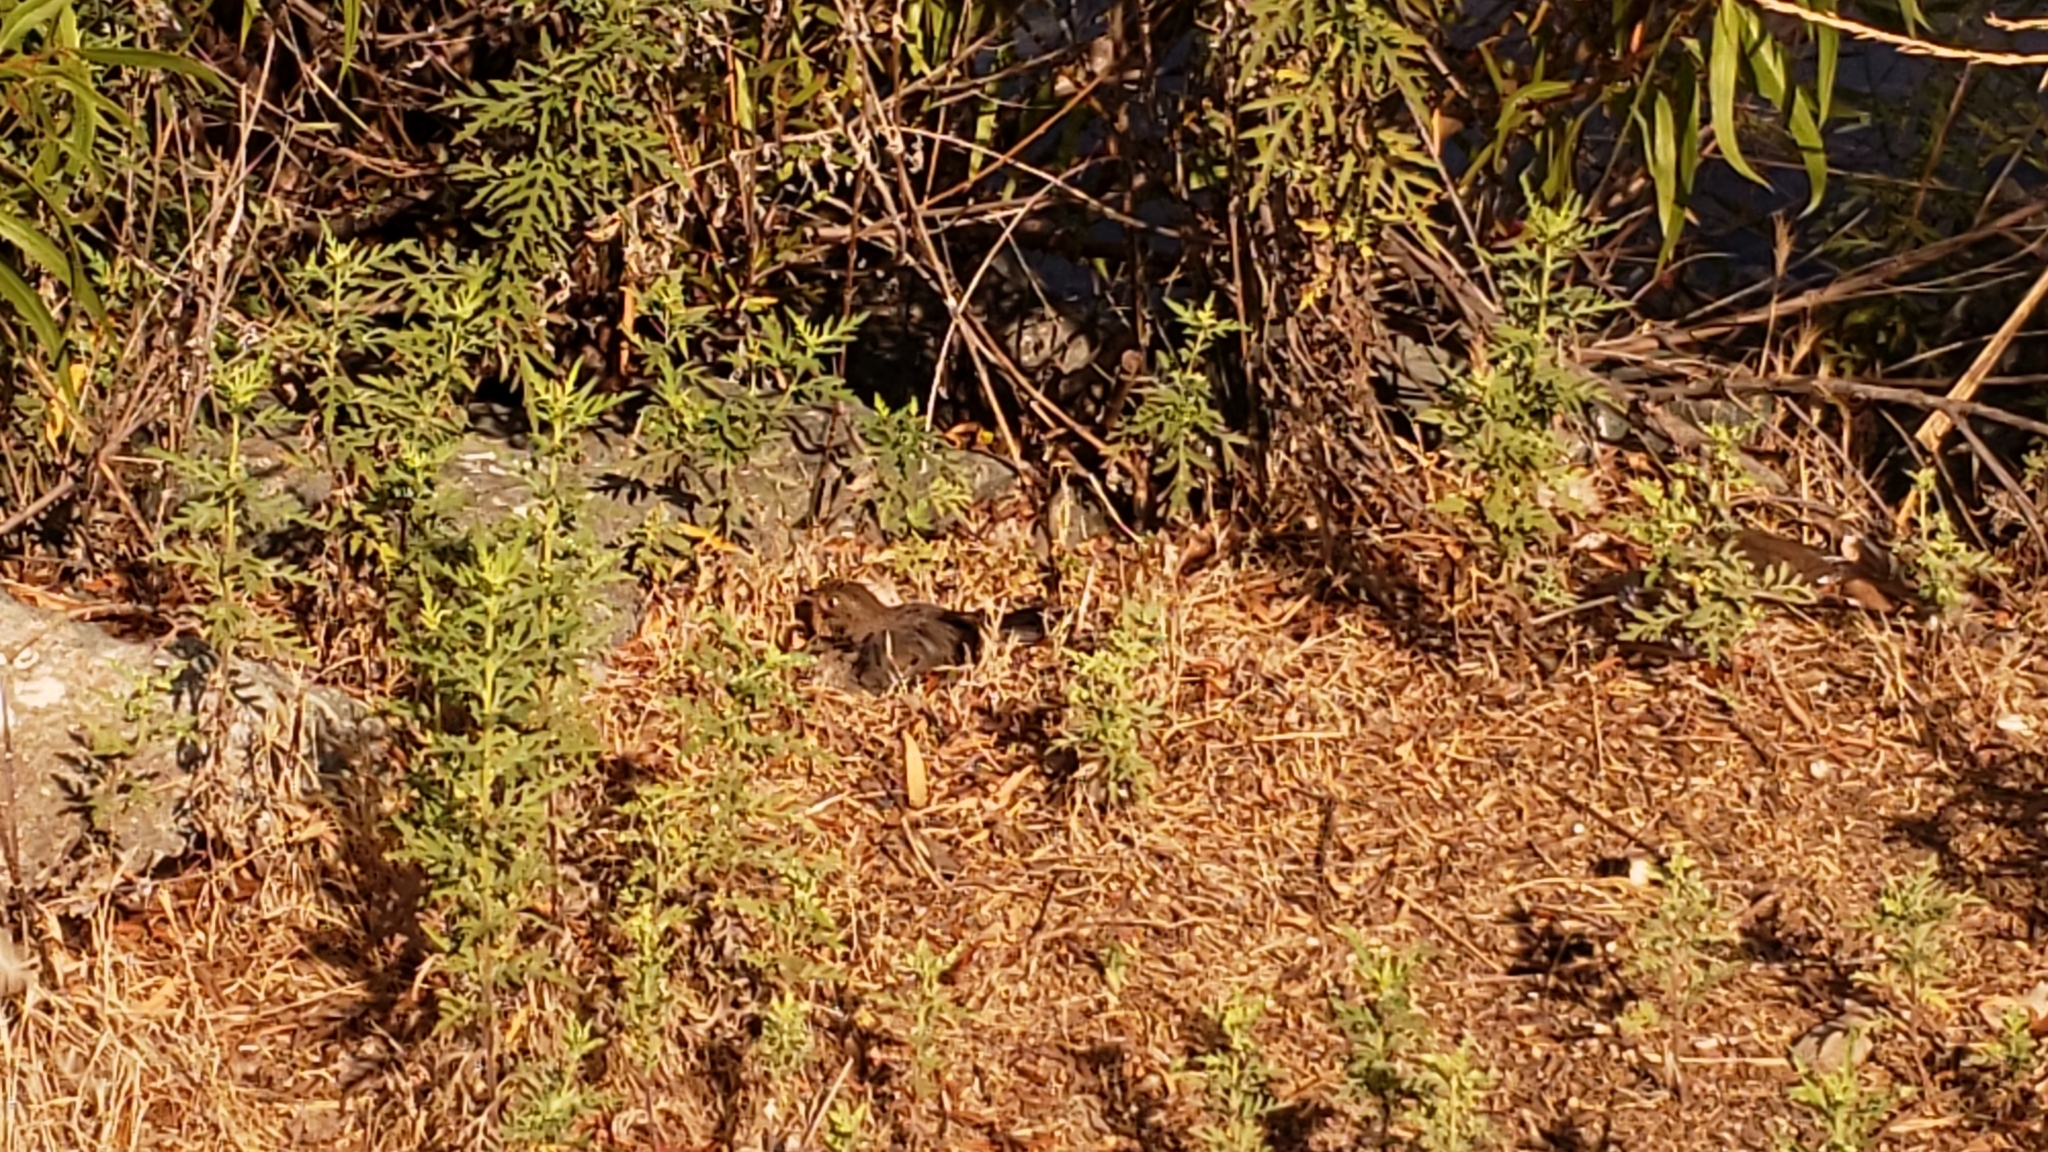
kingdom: Animalia
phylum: Chordata
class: Aves
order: Passeriformes
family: Passerellidae
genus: Melozone
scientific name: Melozone crissalis
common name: California towhee
